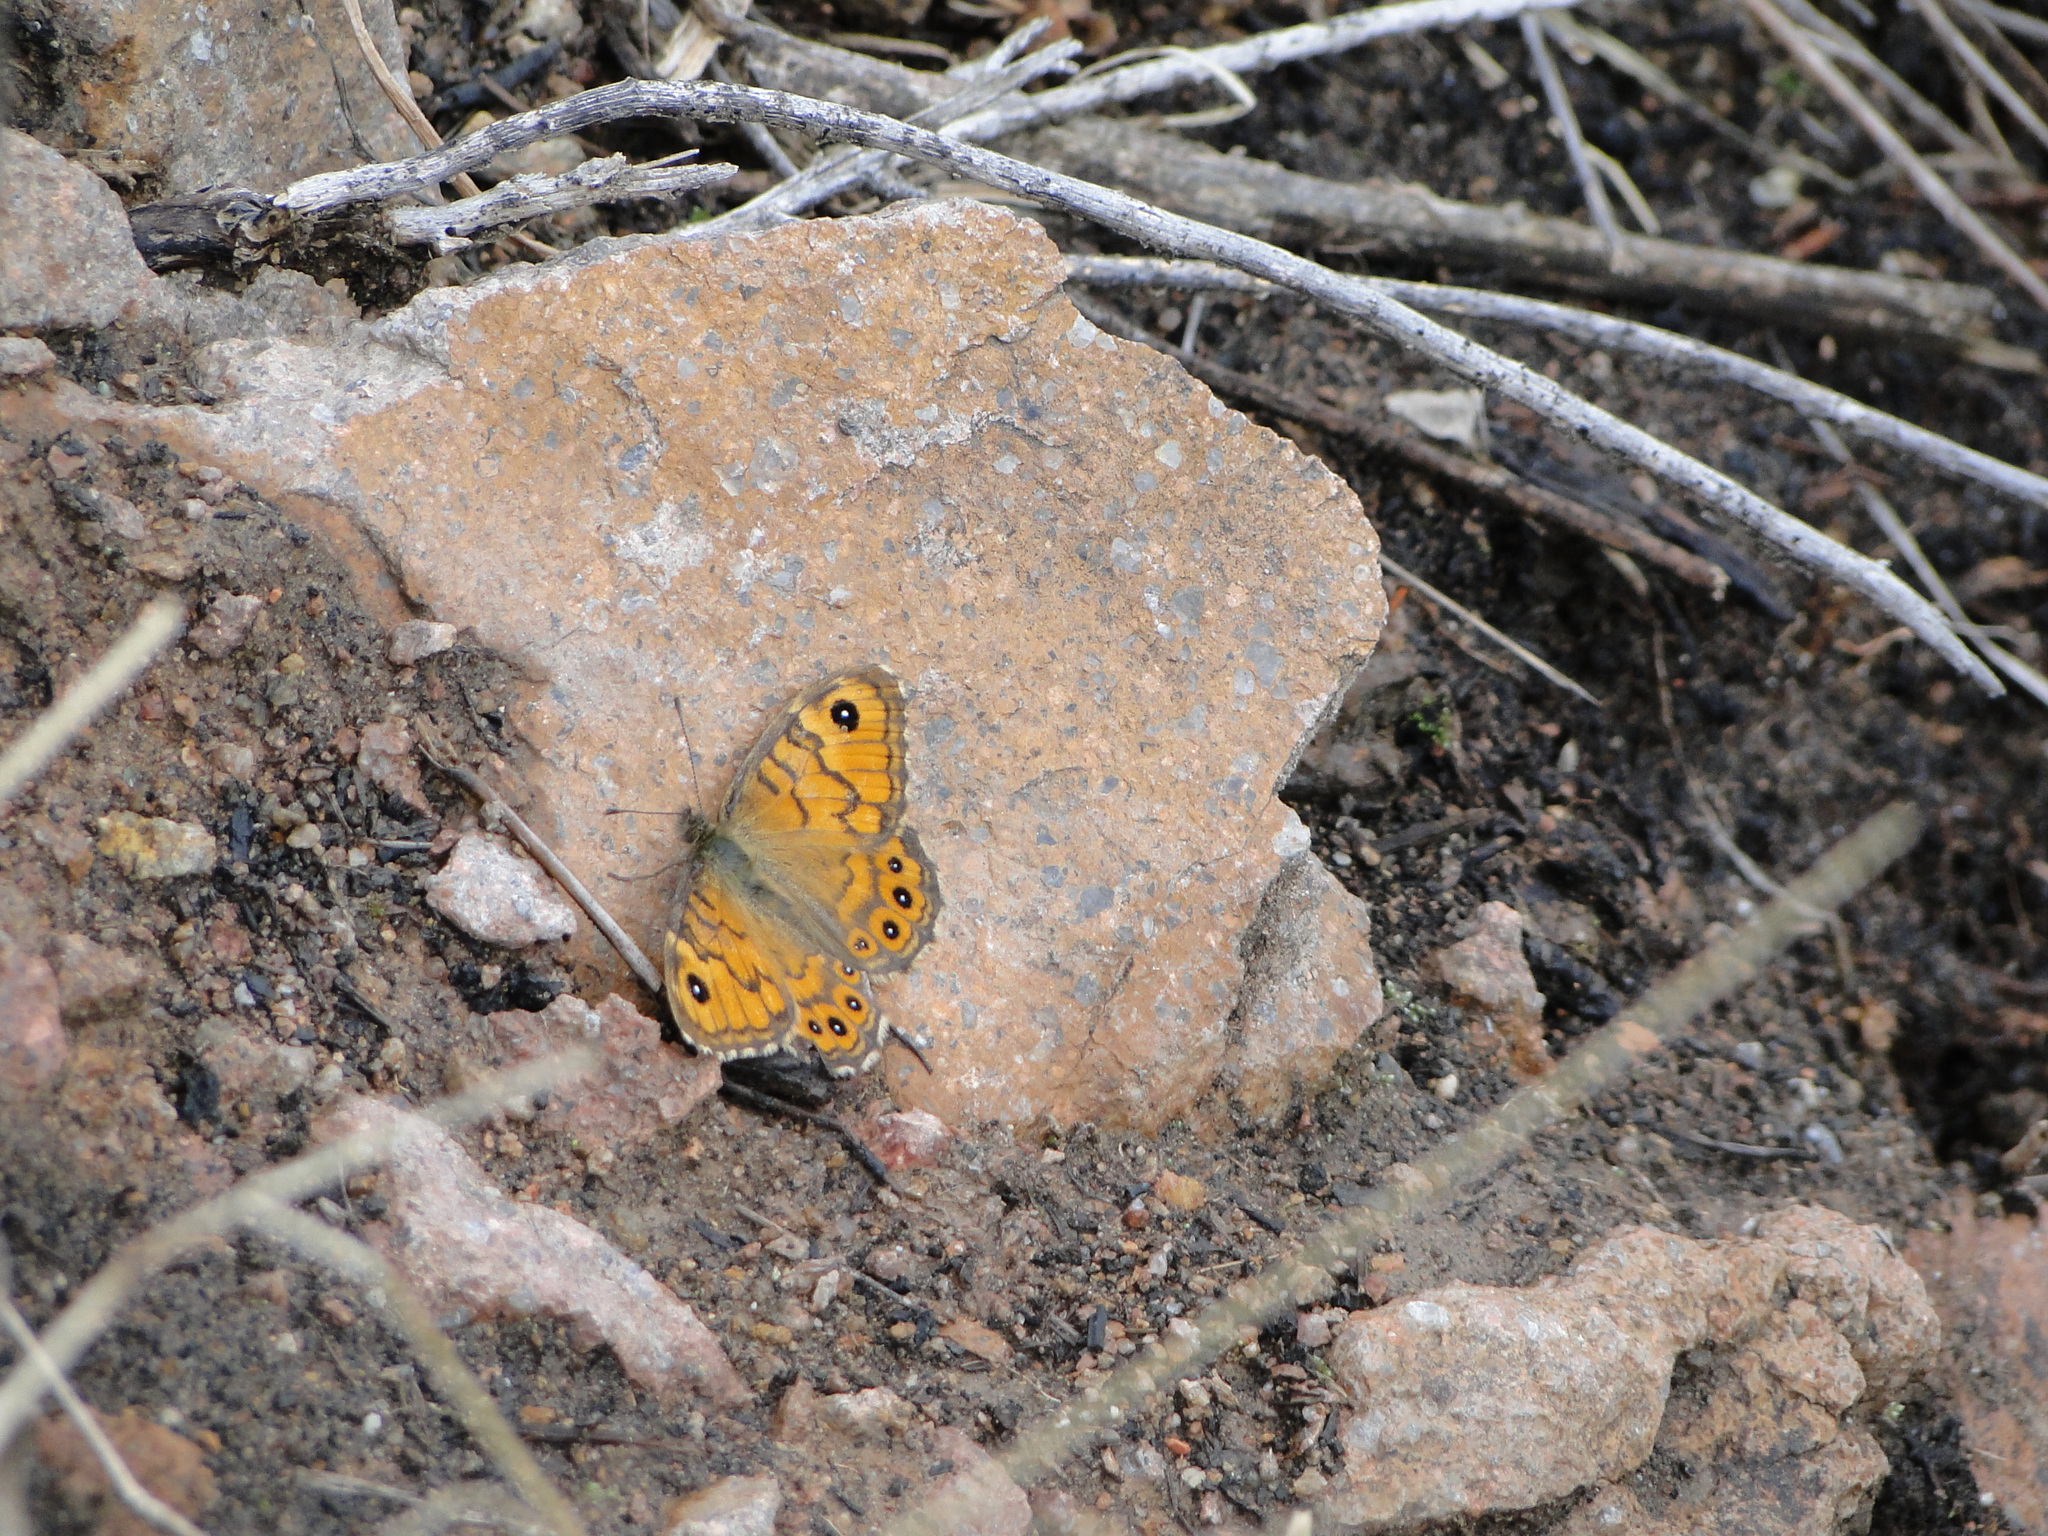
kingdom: Animalia
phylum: Arthropoda
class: Insecta
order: Lepidoptera
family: Nymphalidae
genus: Pararge
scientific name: Pararge Lasiommata megera
